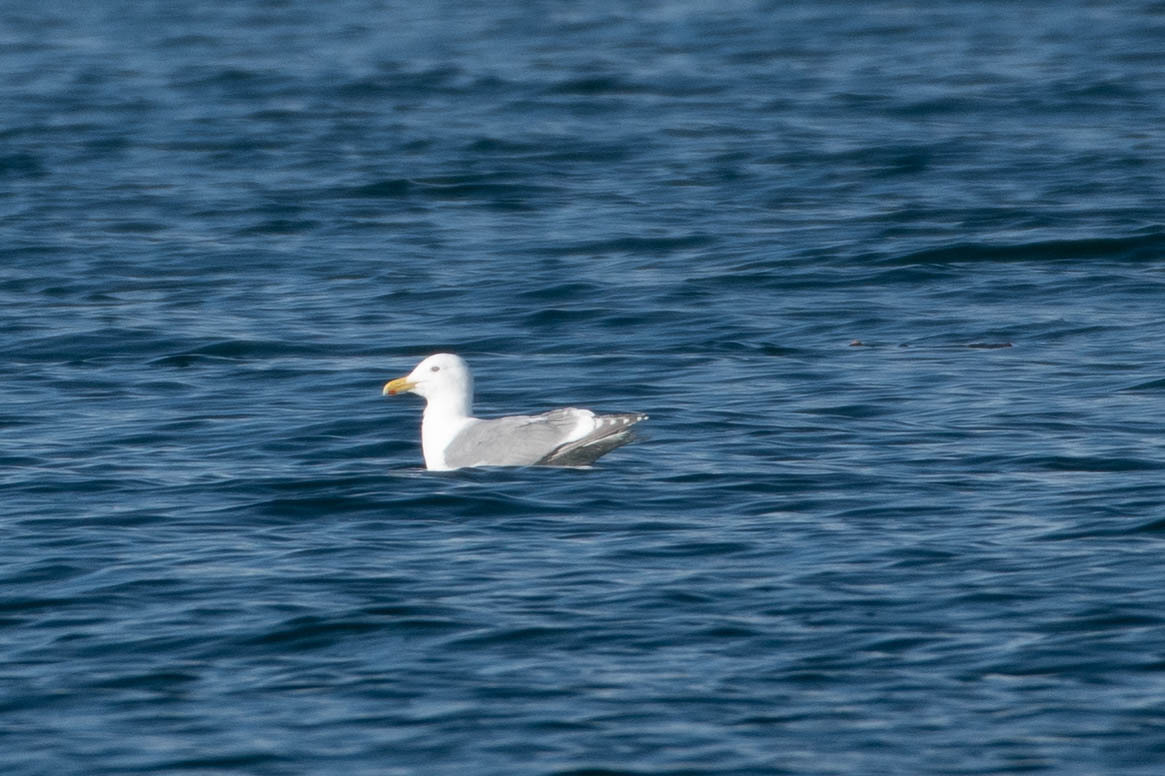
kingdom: Animalia
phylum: Chordata
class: Aves
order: Charadriiformes
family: Laridae
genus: Larus
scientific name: Larus
